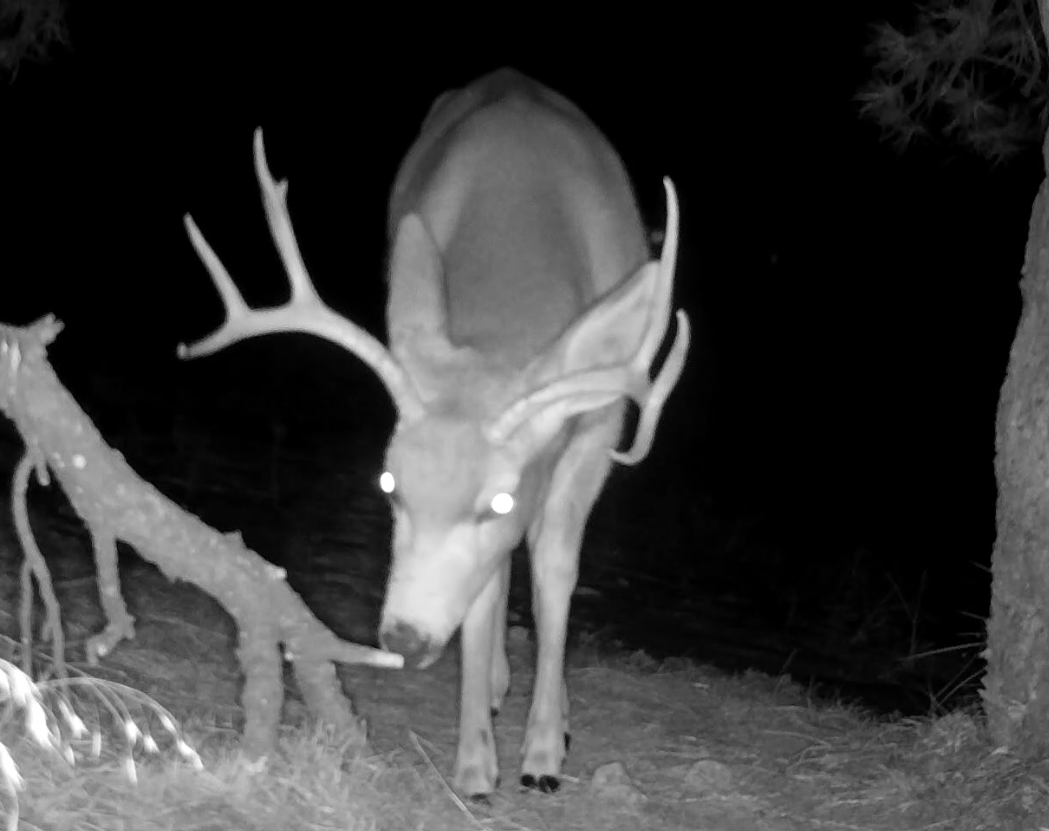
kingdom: Animalia
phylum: Chordata
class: Mammalia
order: Artiodactyla
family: Cervidae
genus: Odocoileus
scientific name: Odocoileus hemionus
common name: Mule deer
